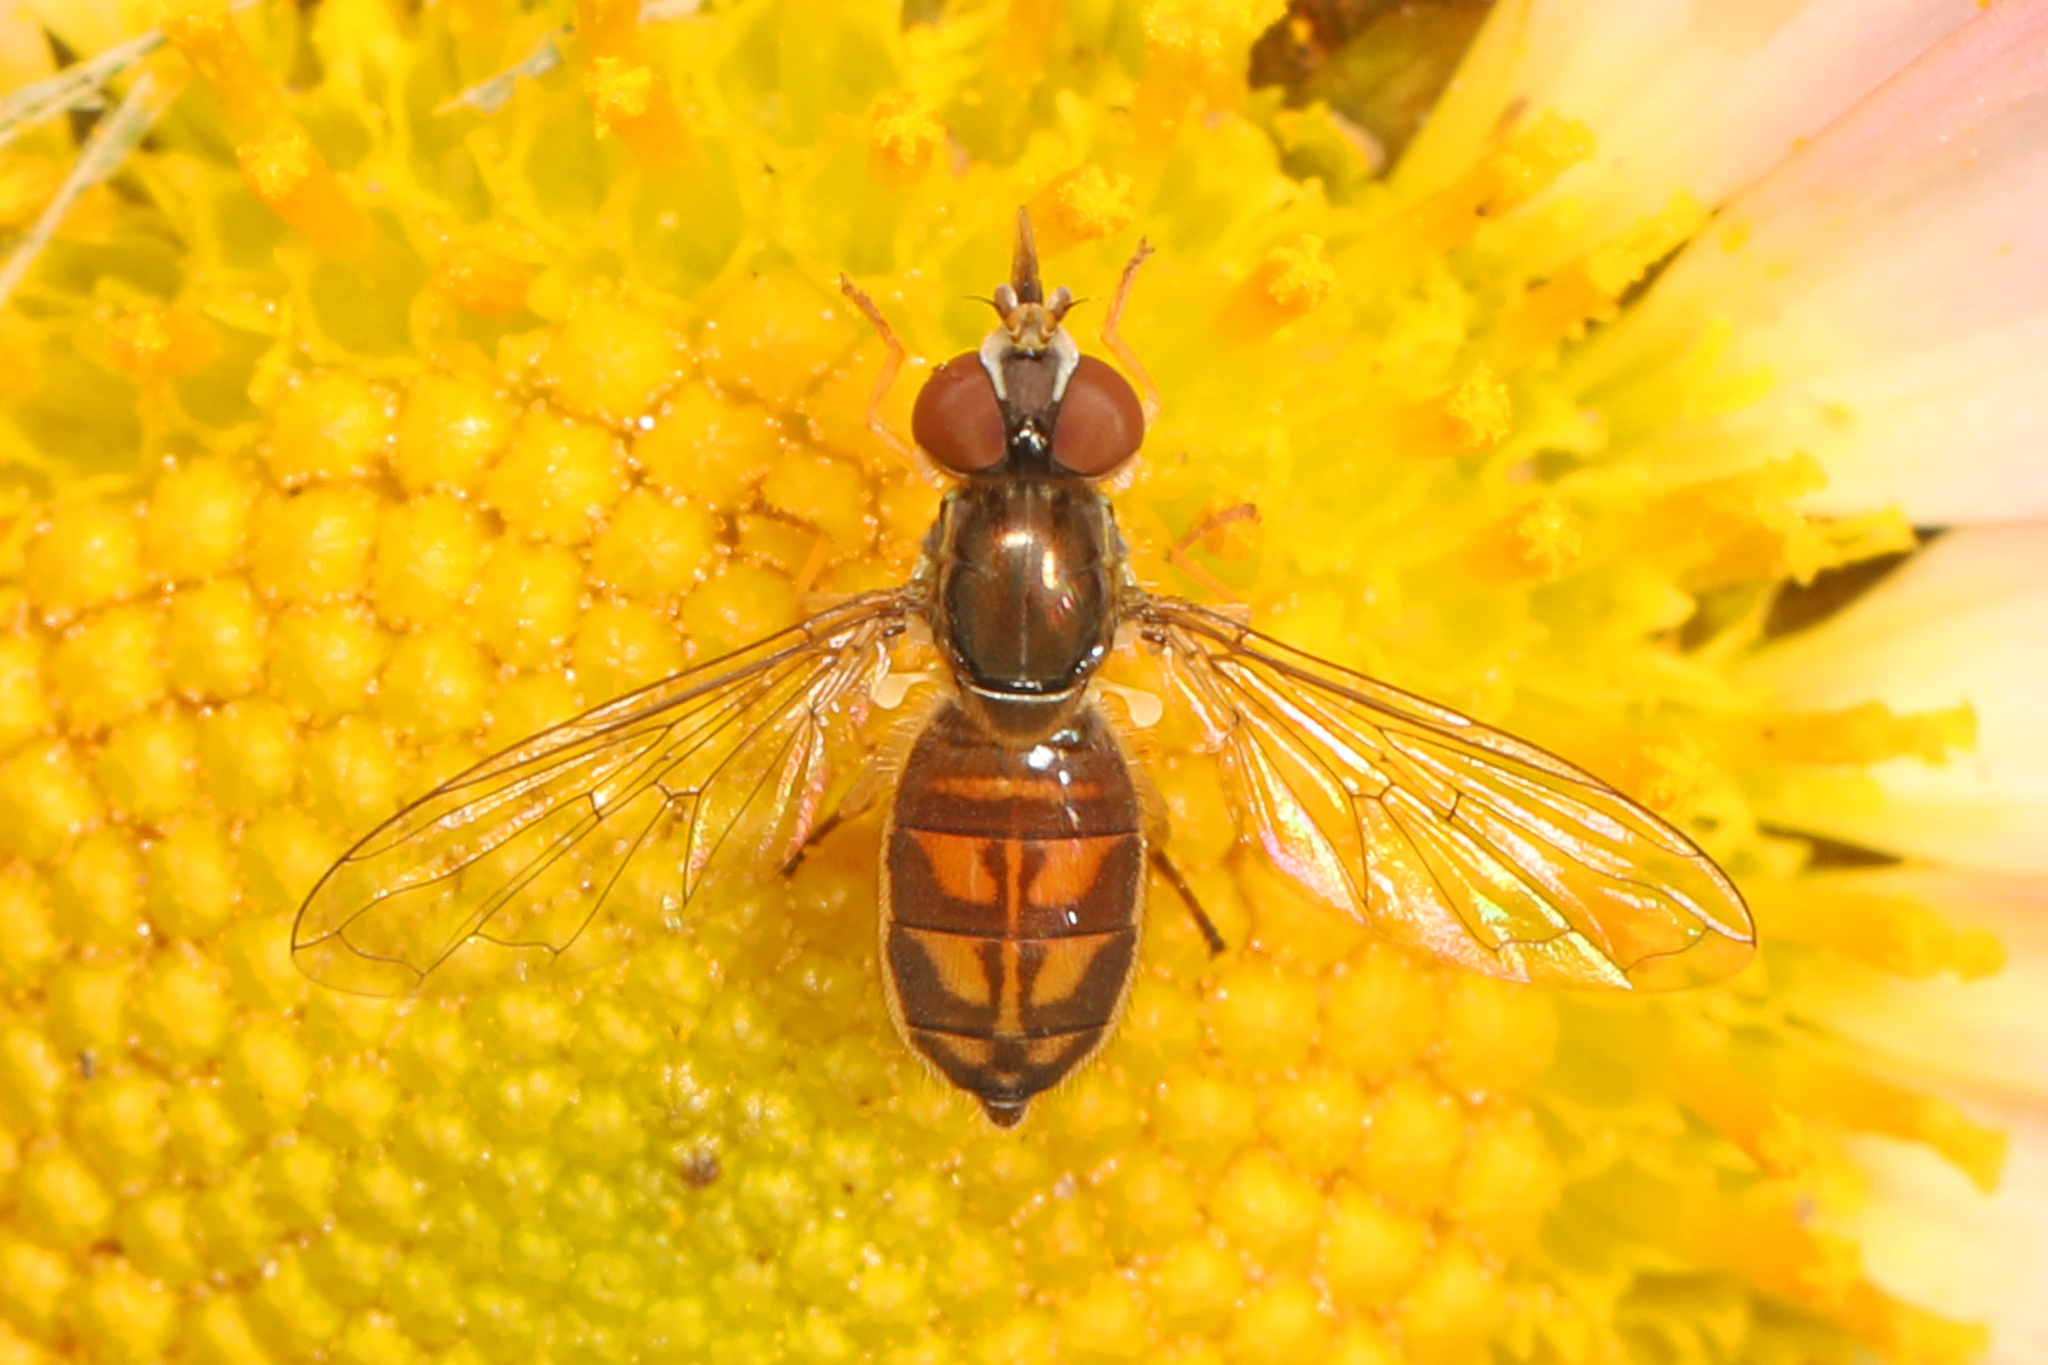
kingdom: Animalia
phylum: Arthropoda
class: Insecta
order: Diptera
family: Syrphidae
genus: Toxomerus
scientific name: Toxomerus marginatus
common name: Syrphid fly
